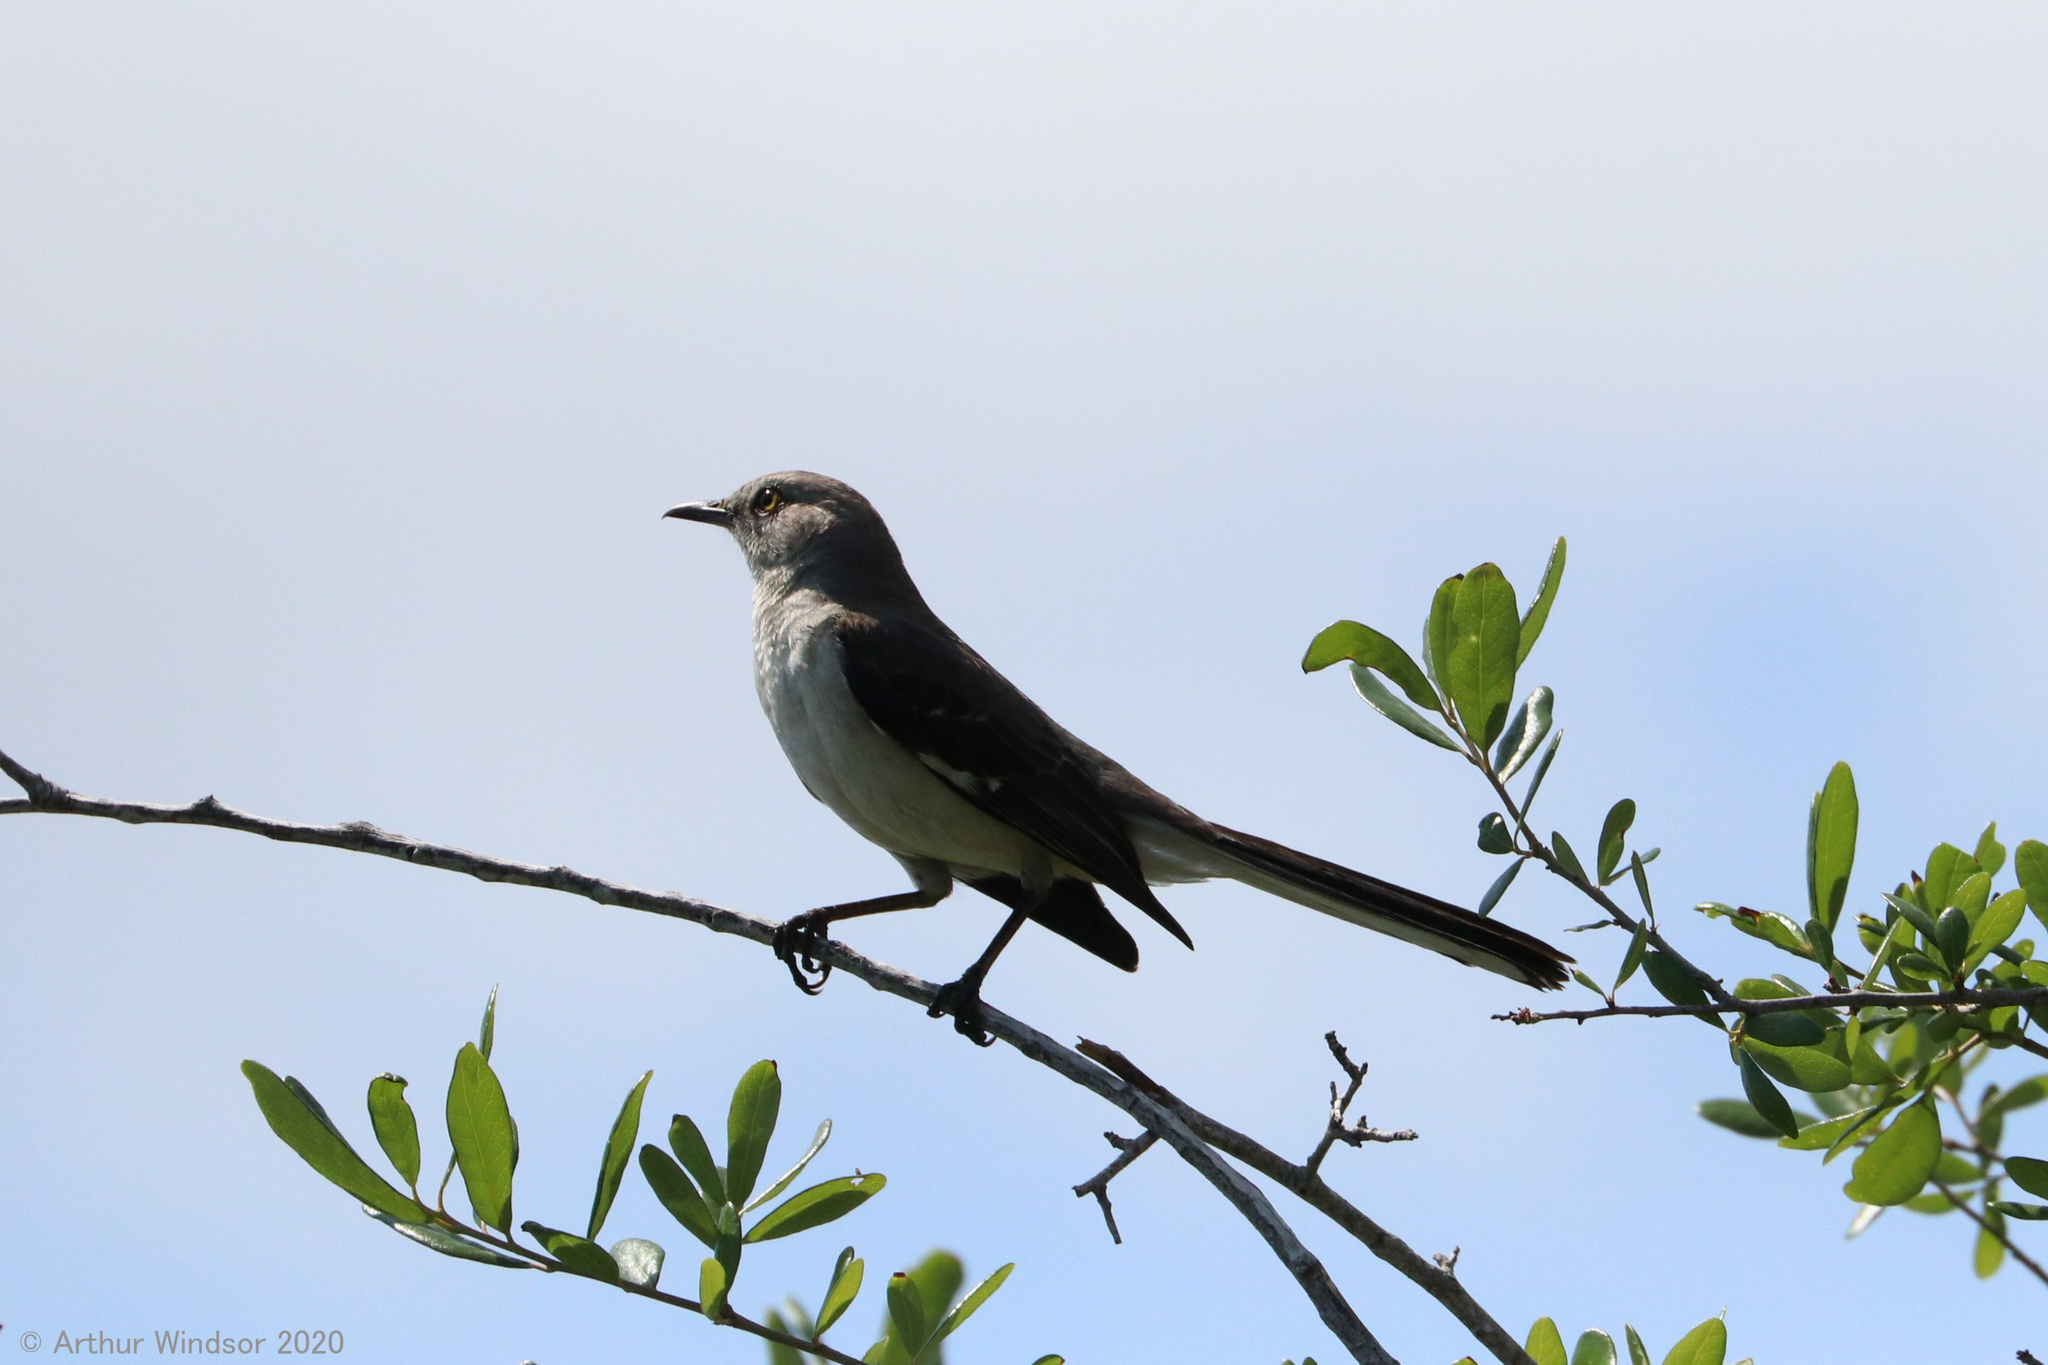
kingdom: Animalia
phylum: Chordata
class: Aves
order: Passeriformes
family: Mimidae
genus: Mimus
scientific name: Mimus polyglottos
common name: Northern mockingbird
